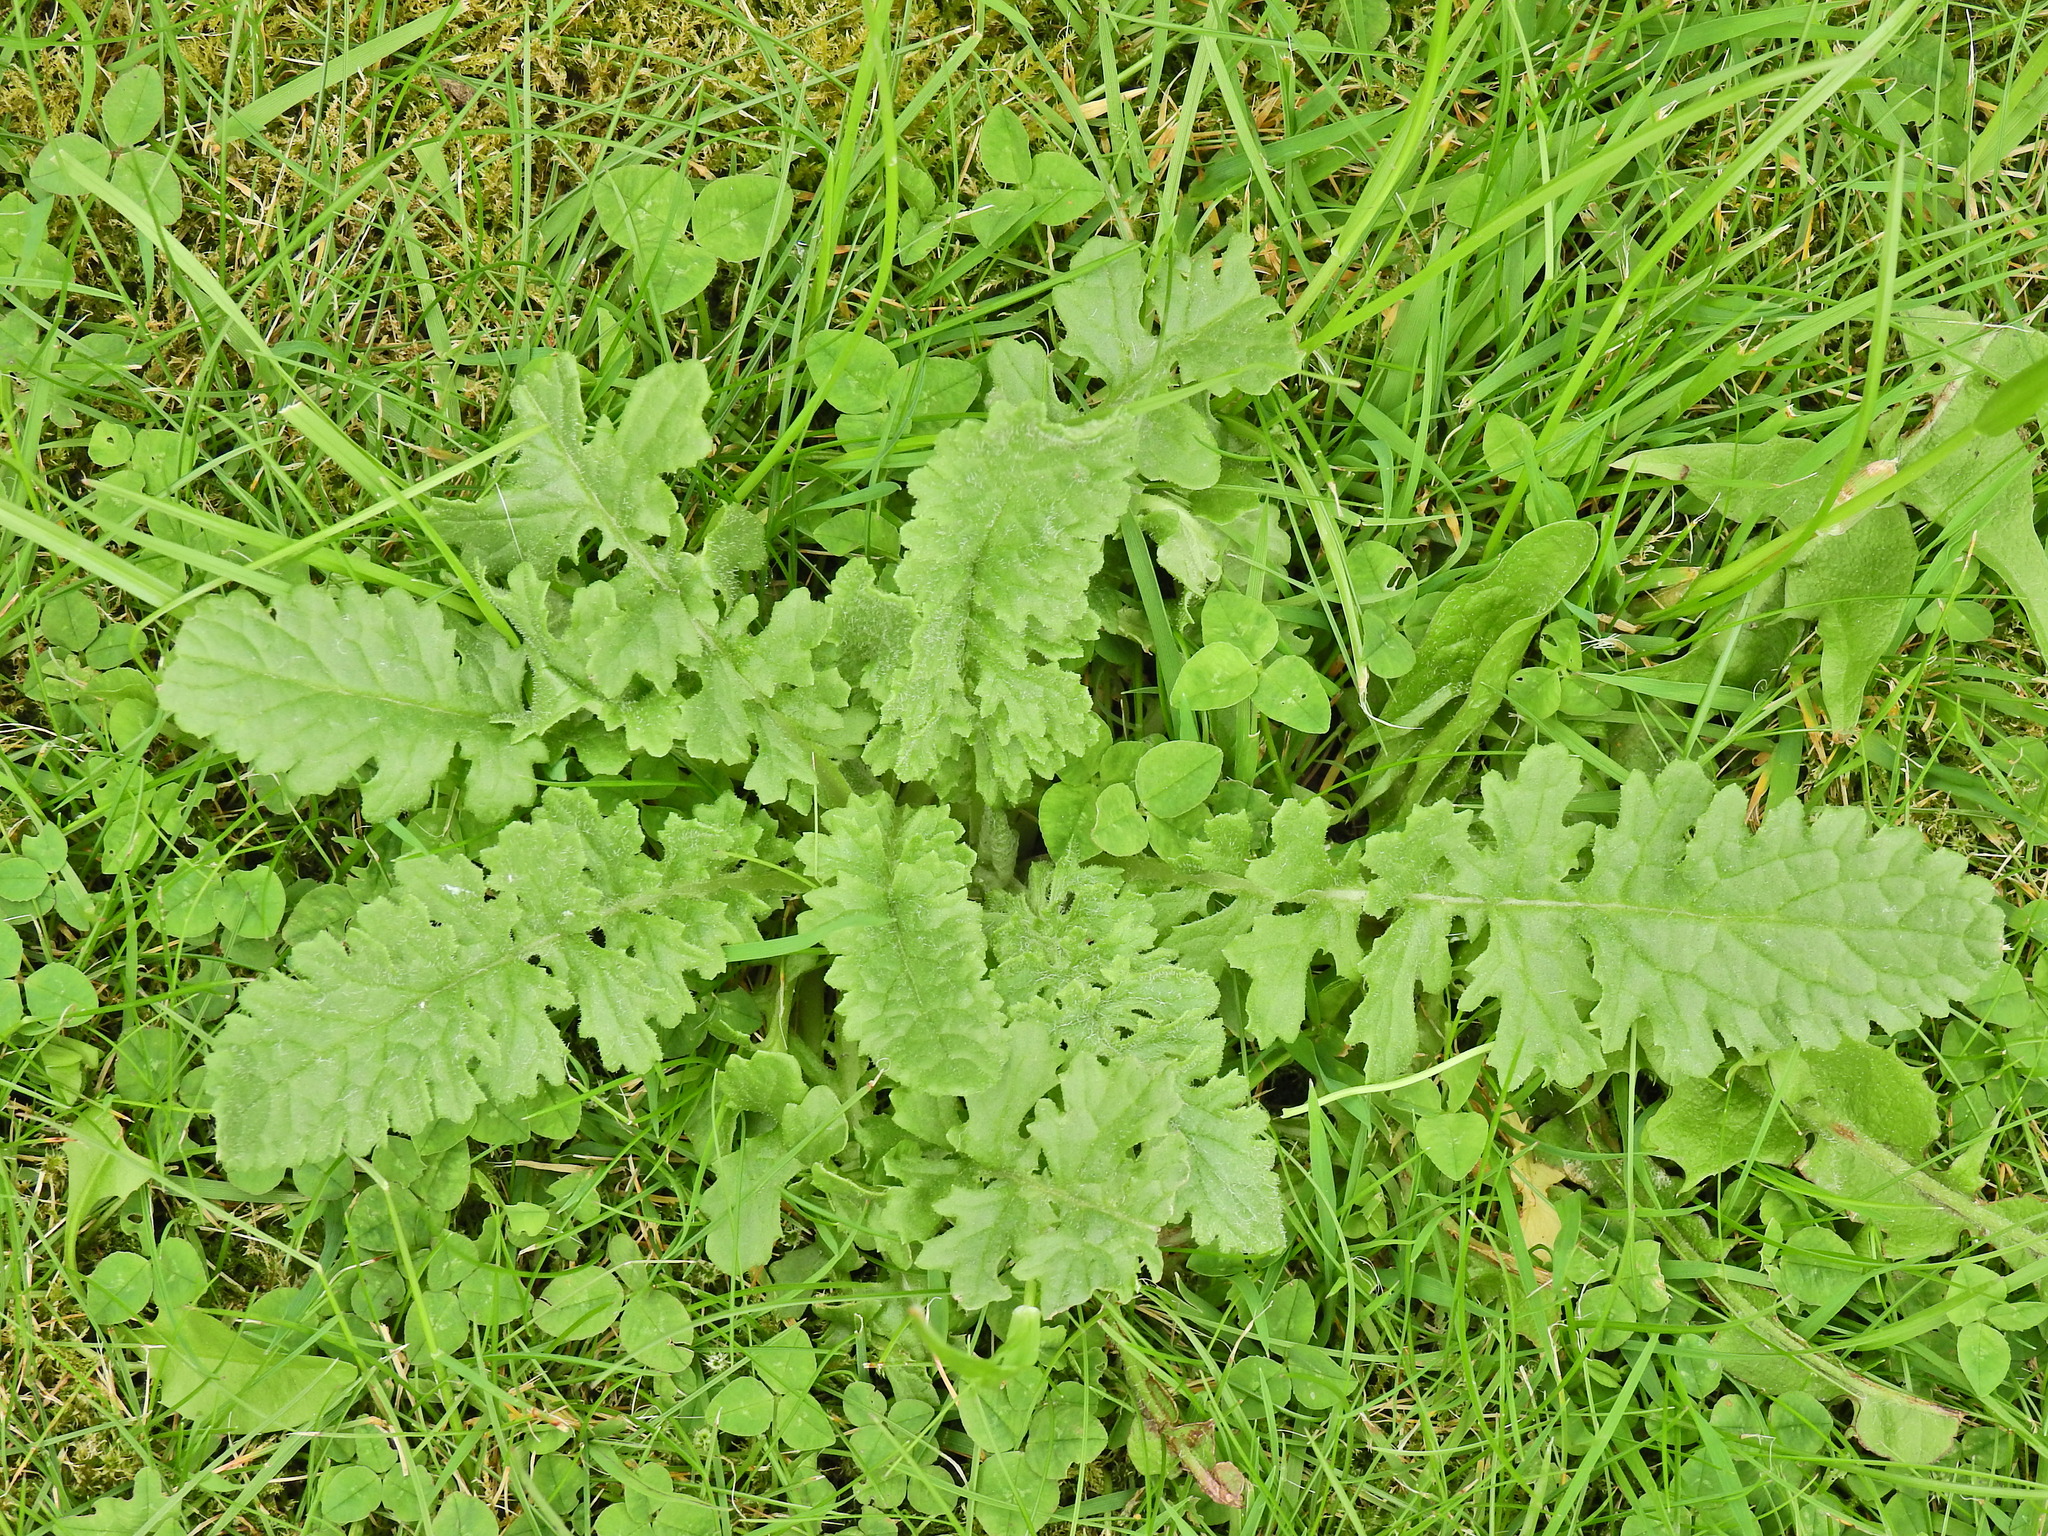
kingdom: Plantae
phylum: Tracheophyta
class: Magnoliopsida
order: Asterales
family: Asteraceae
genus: Jacobaea
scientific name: Jacobaea vulgaris
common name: Stinking willie
